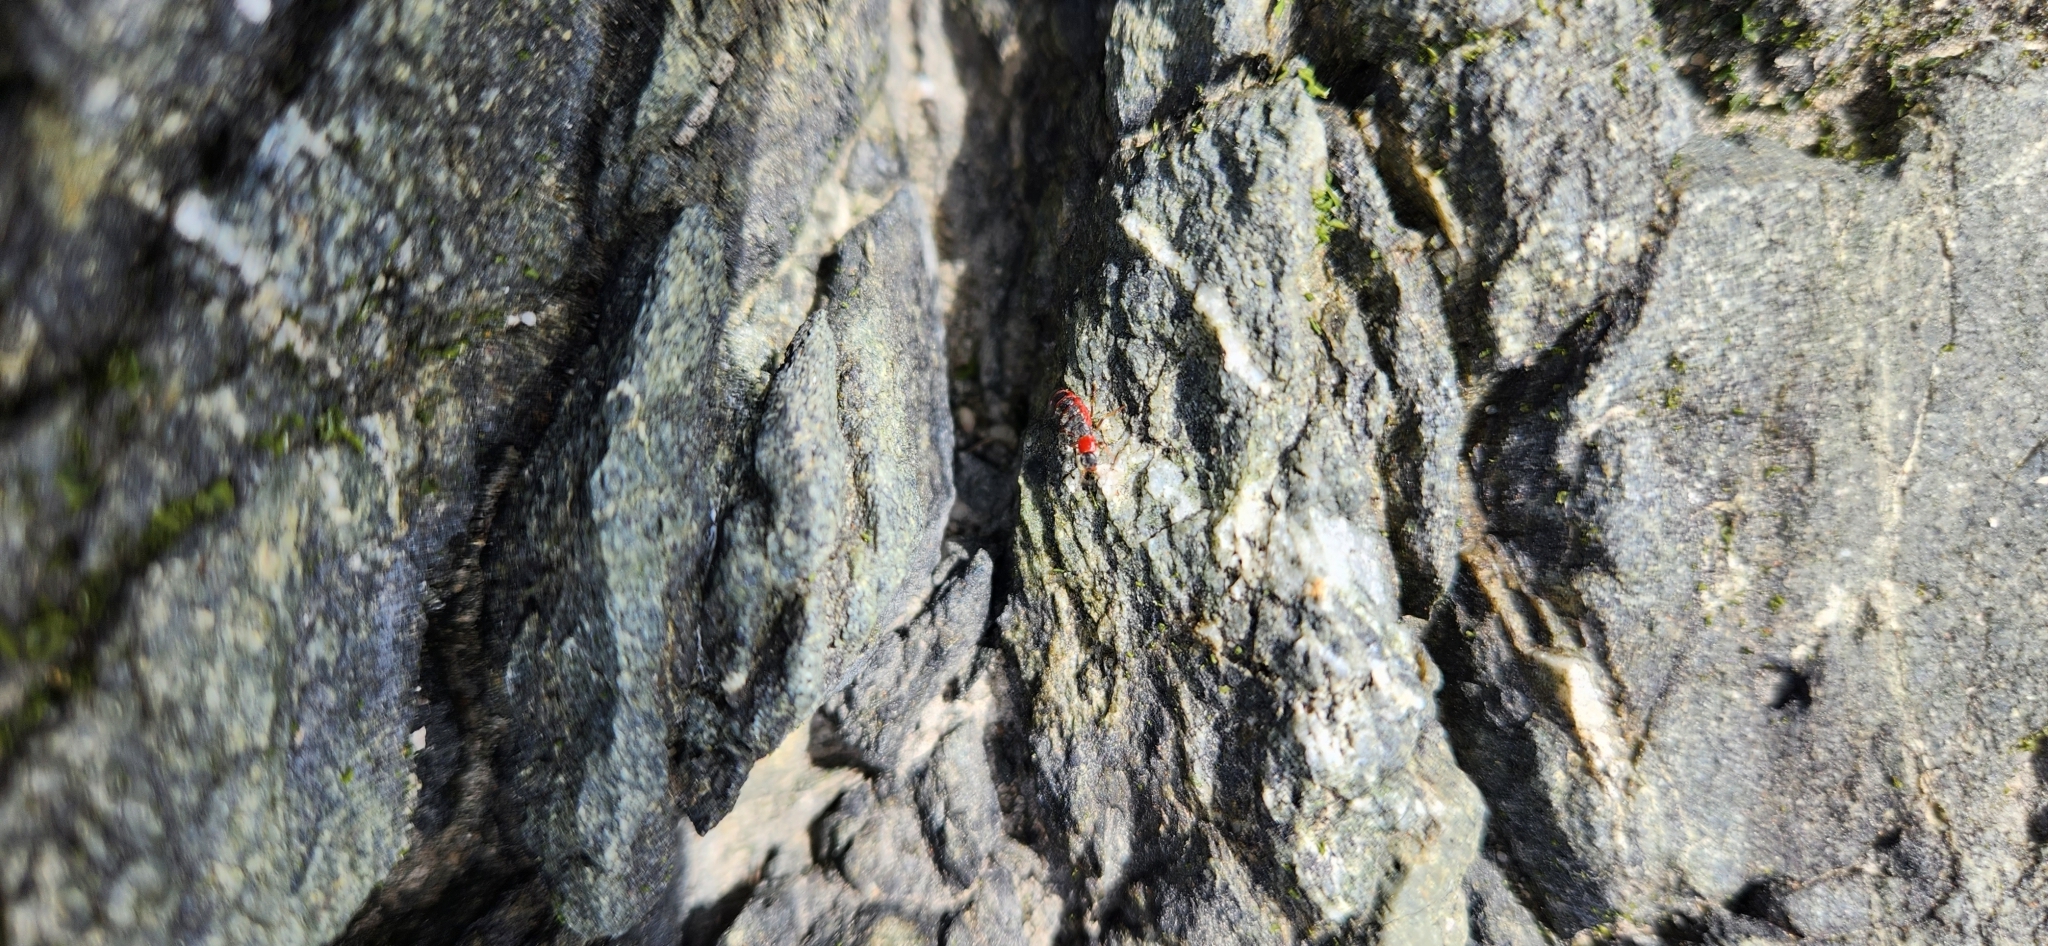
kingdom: Animalia
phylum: Arthropoda
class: Insecta
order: Coleoptera
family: Melyridae
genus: Endeodes
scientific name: Endeodes collaris
